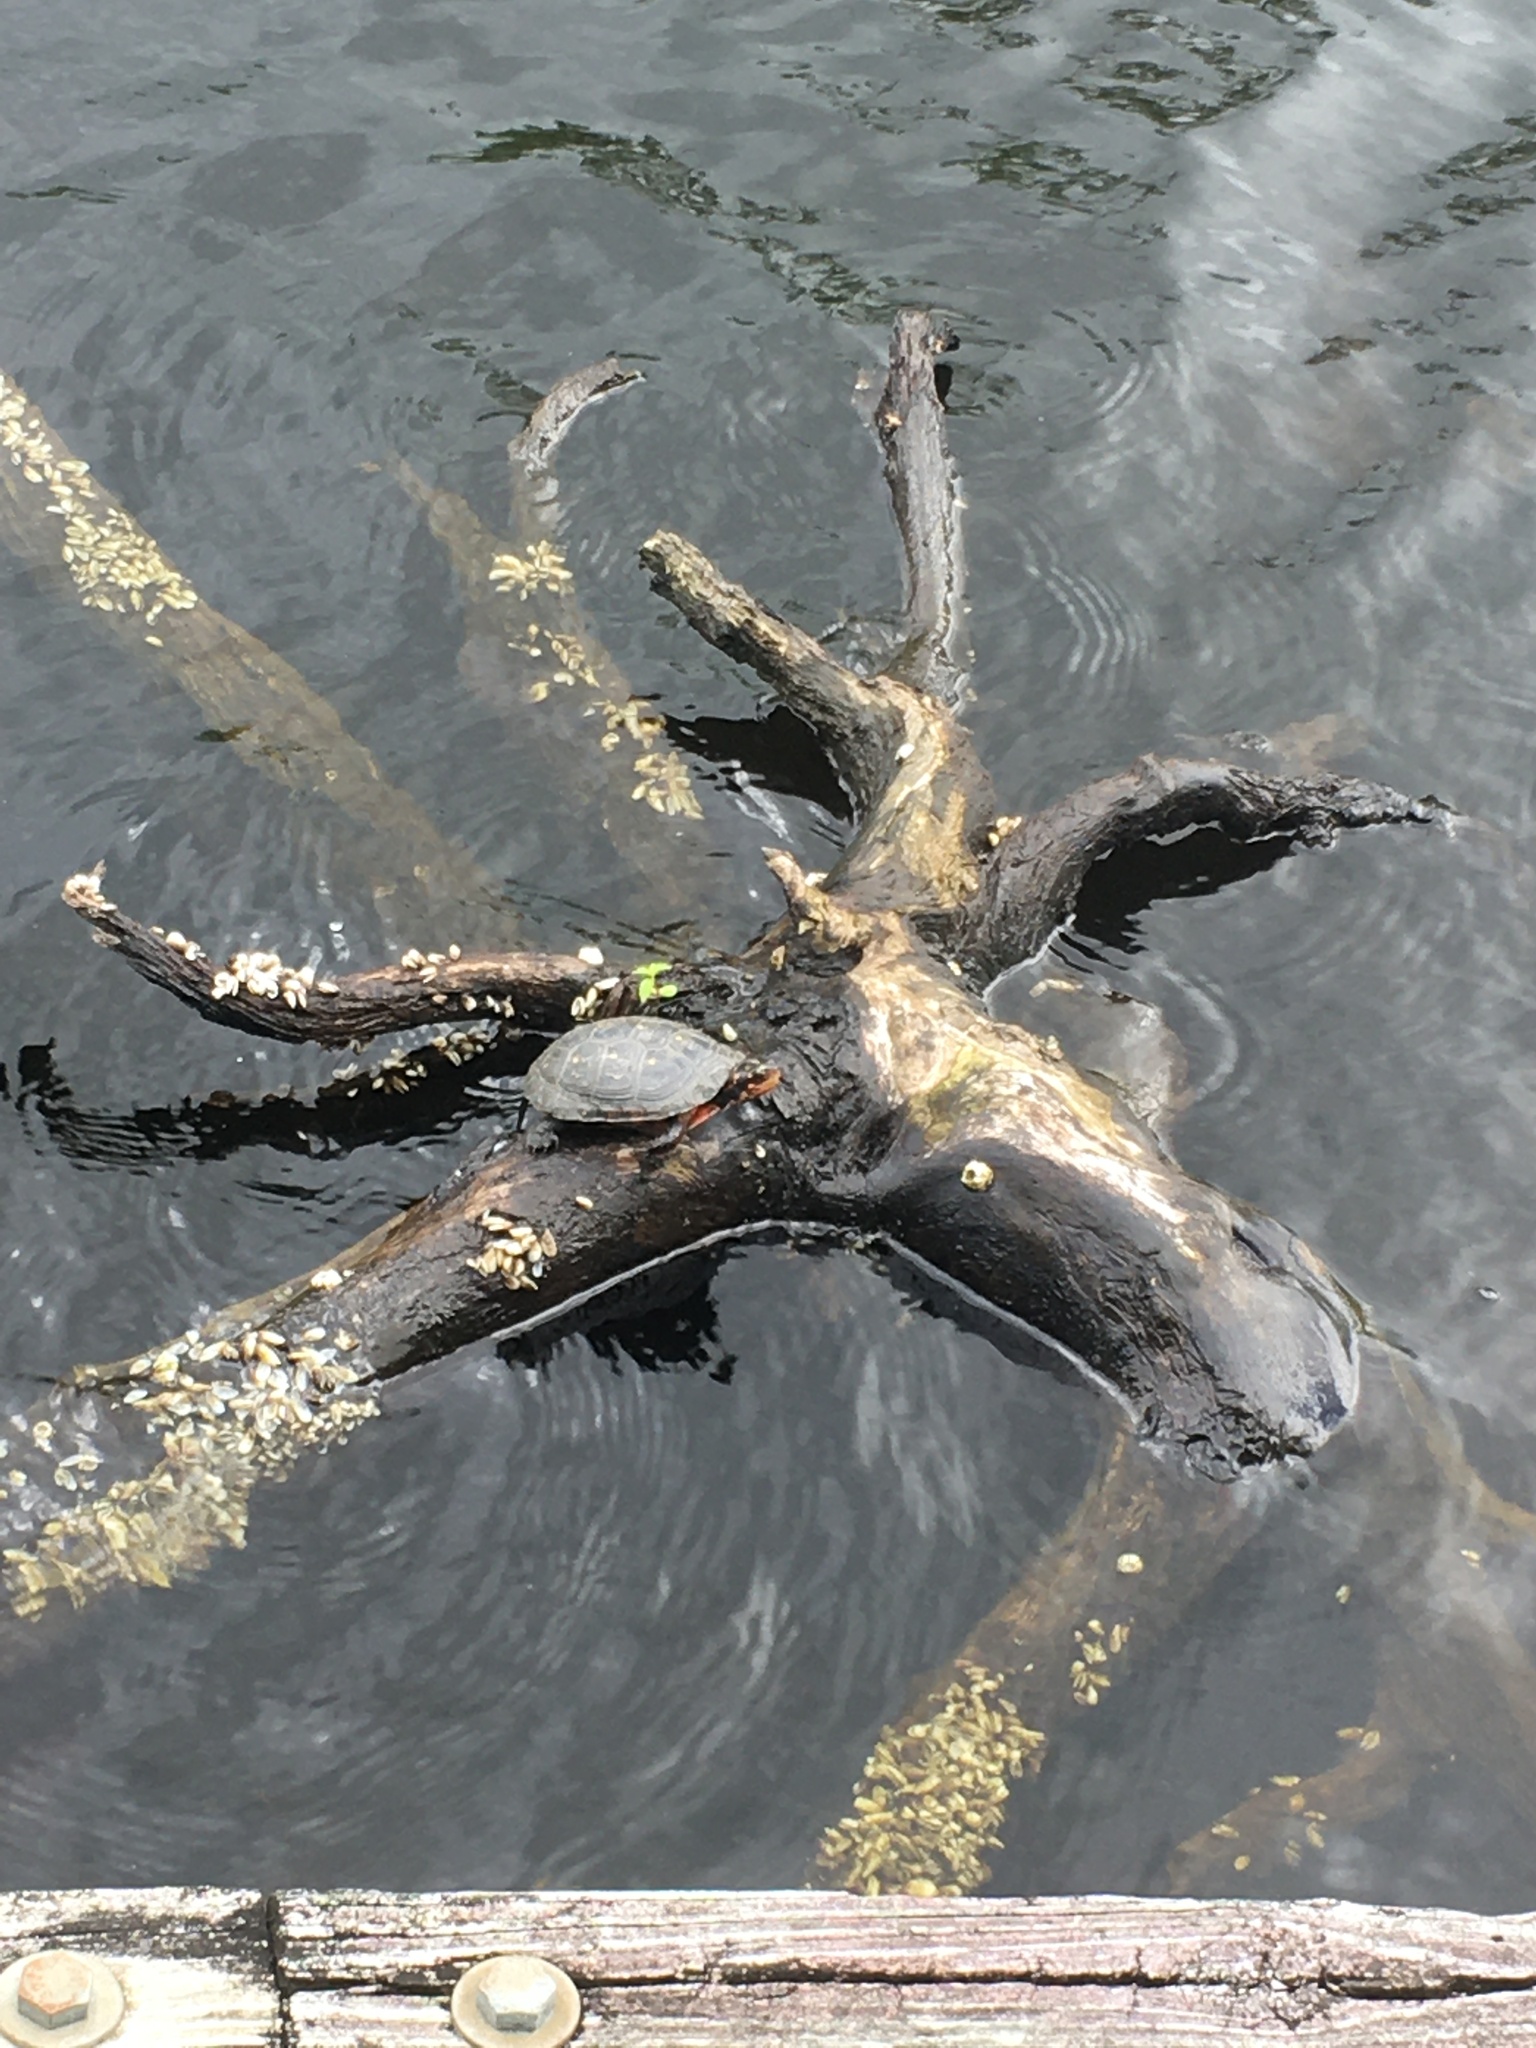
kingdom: Animalia
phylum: Chordata
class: Testudines
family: Emydidae
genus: Clemmys
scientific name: Clemmys guttata
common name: Spotted turtle
